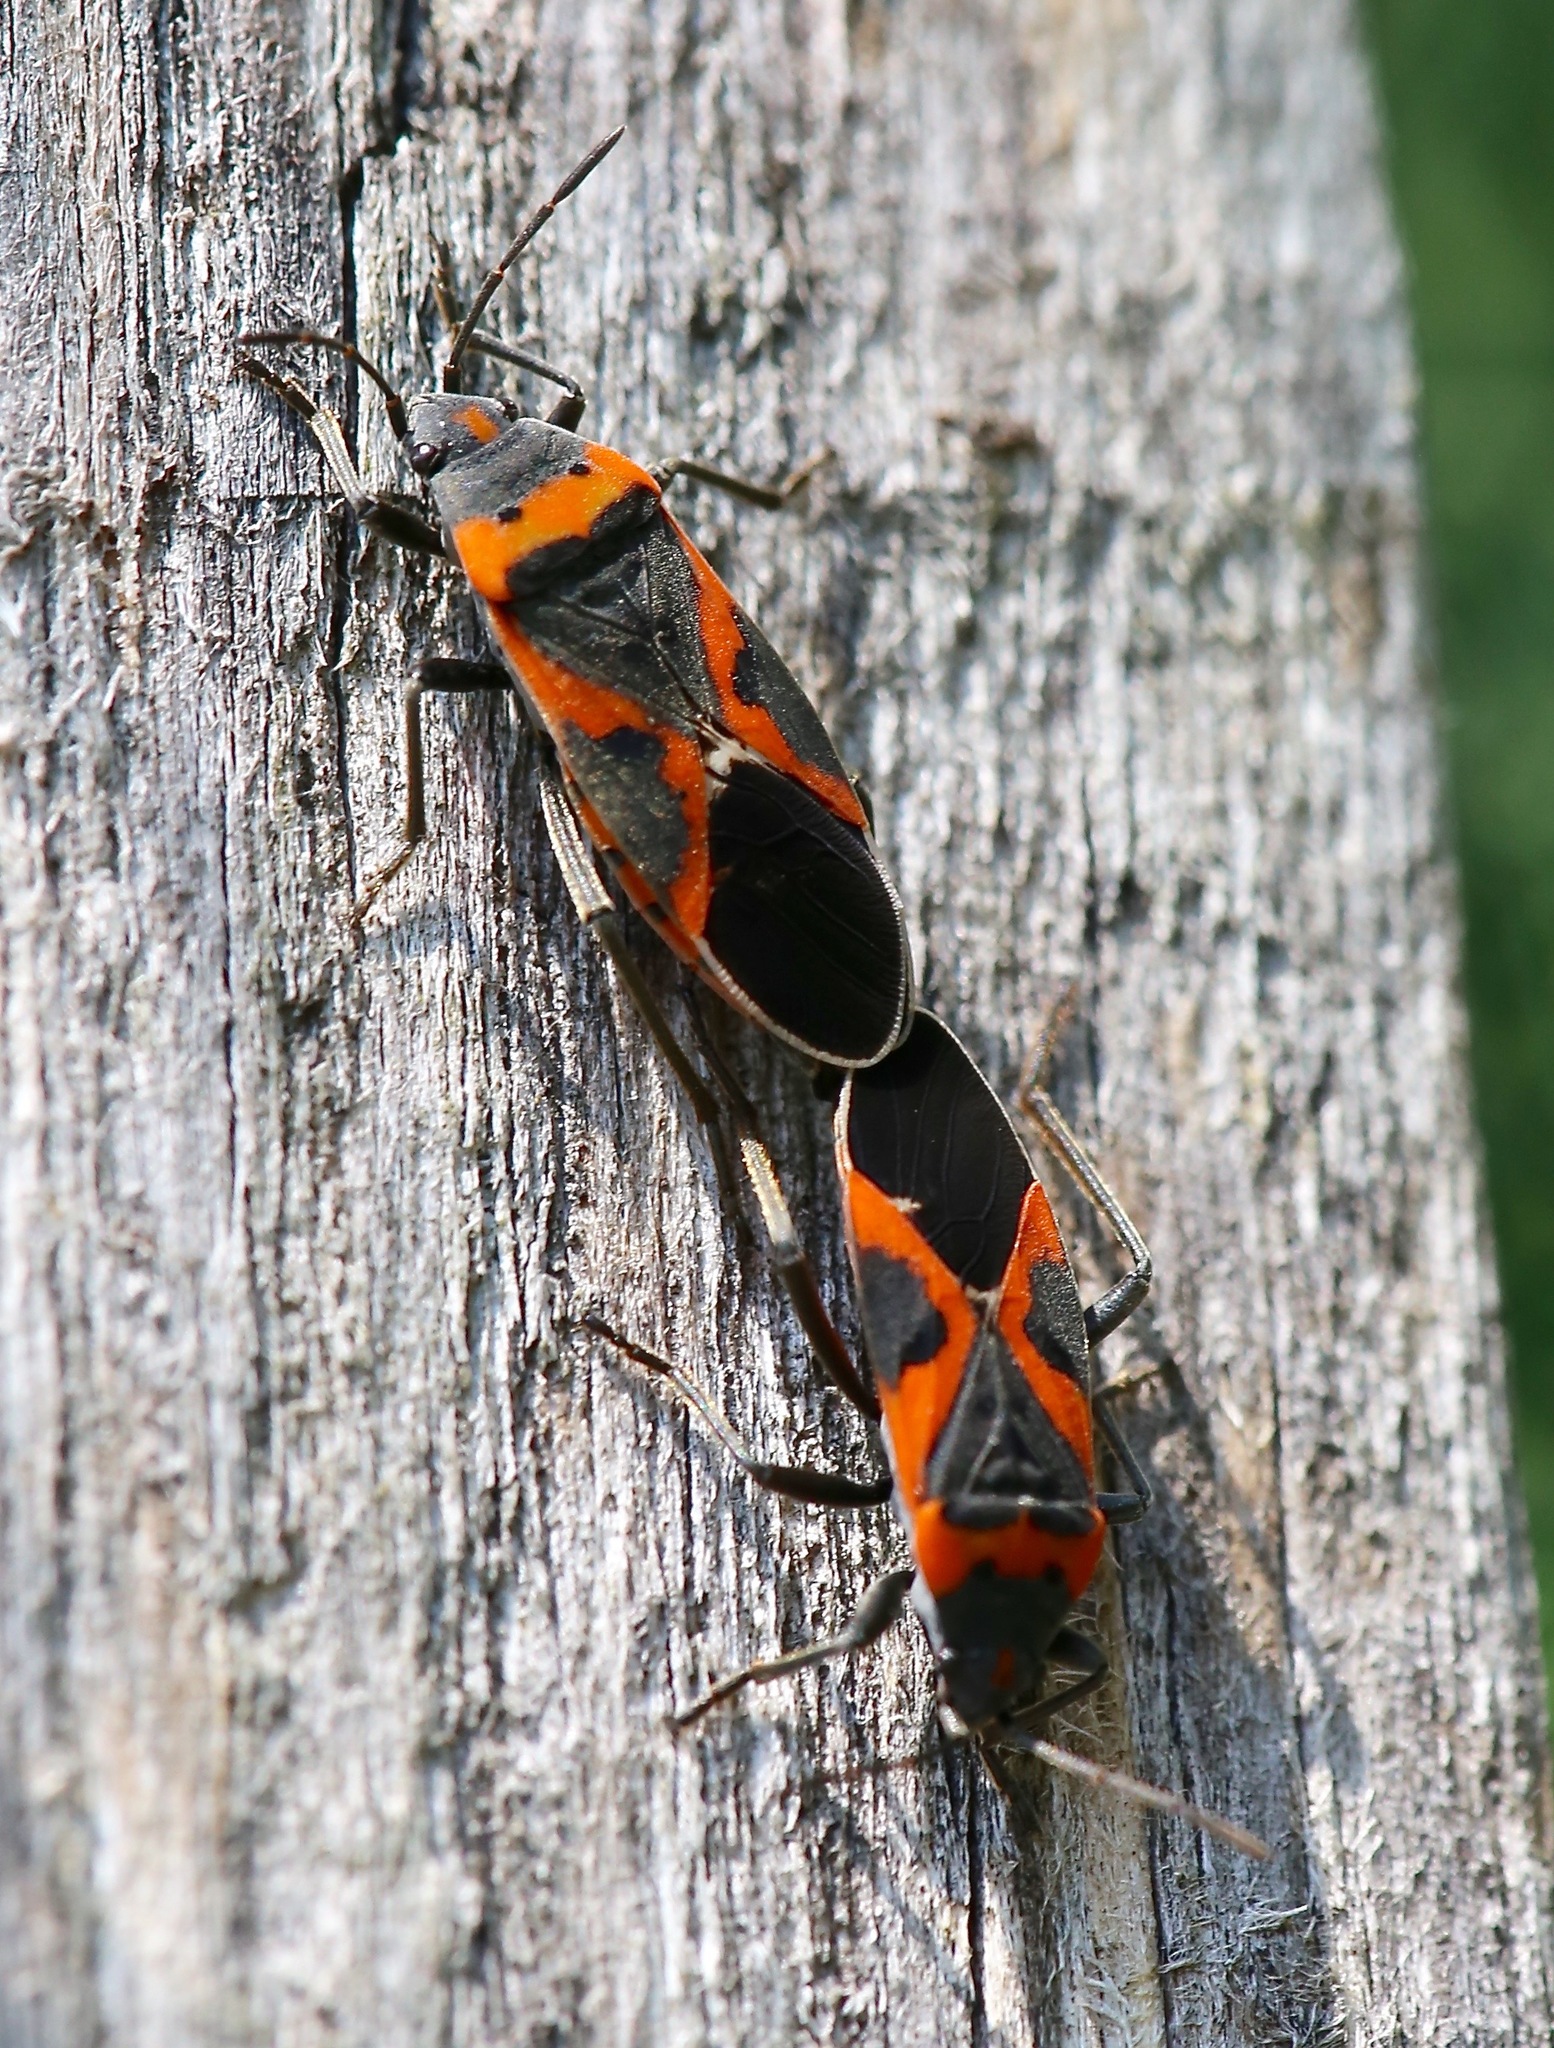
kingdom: Animalia
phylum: Arthropoda
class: Insecta
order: Hemiptera
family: Lygaeidae
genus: Lygaeus
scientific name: Lygaeus kalmii
